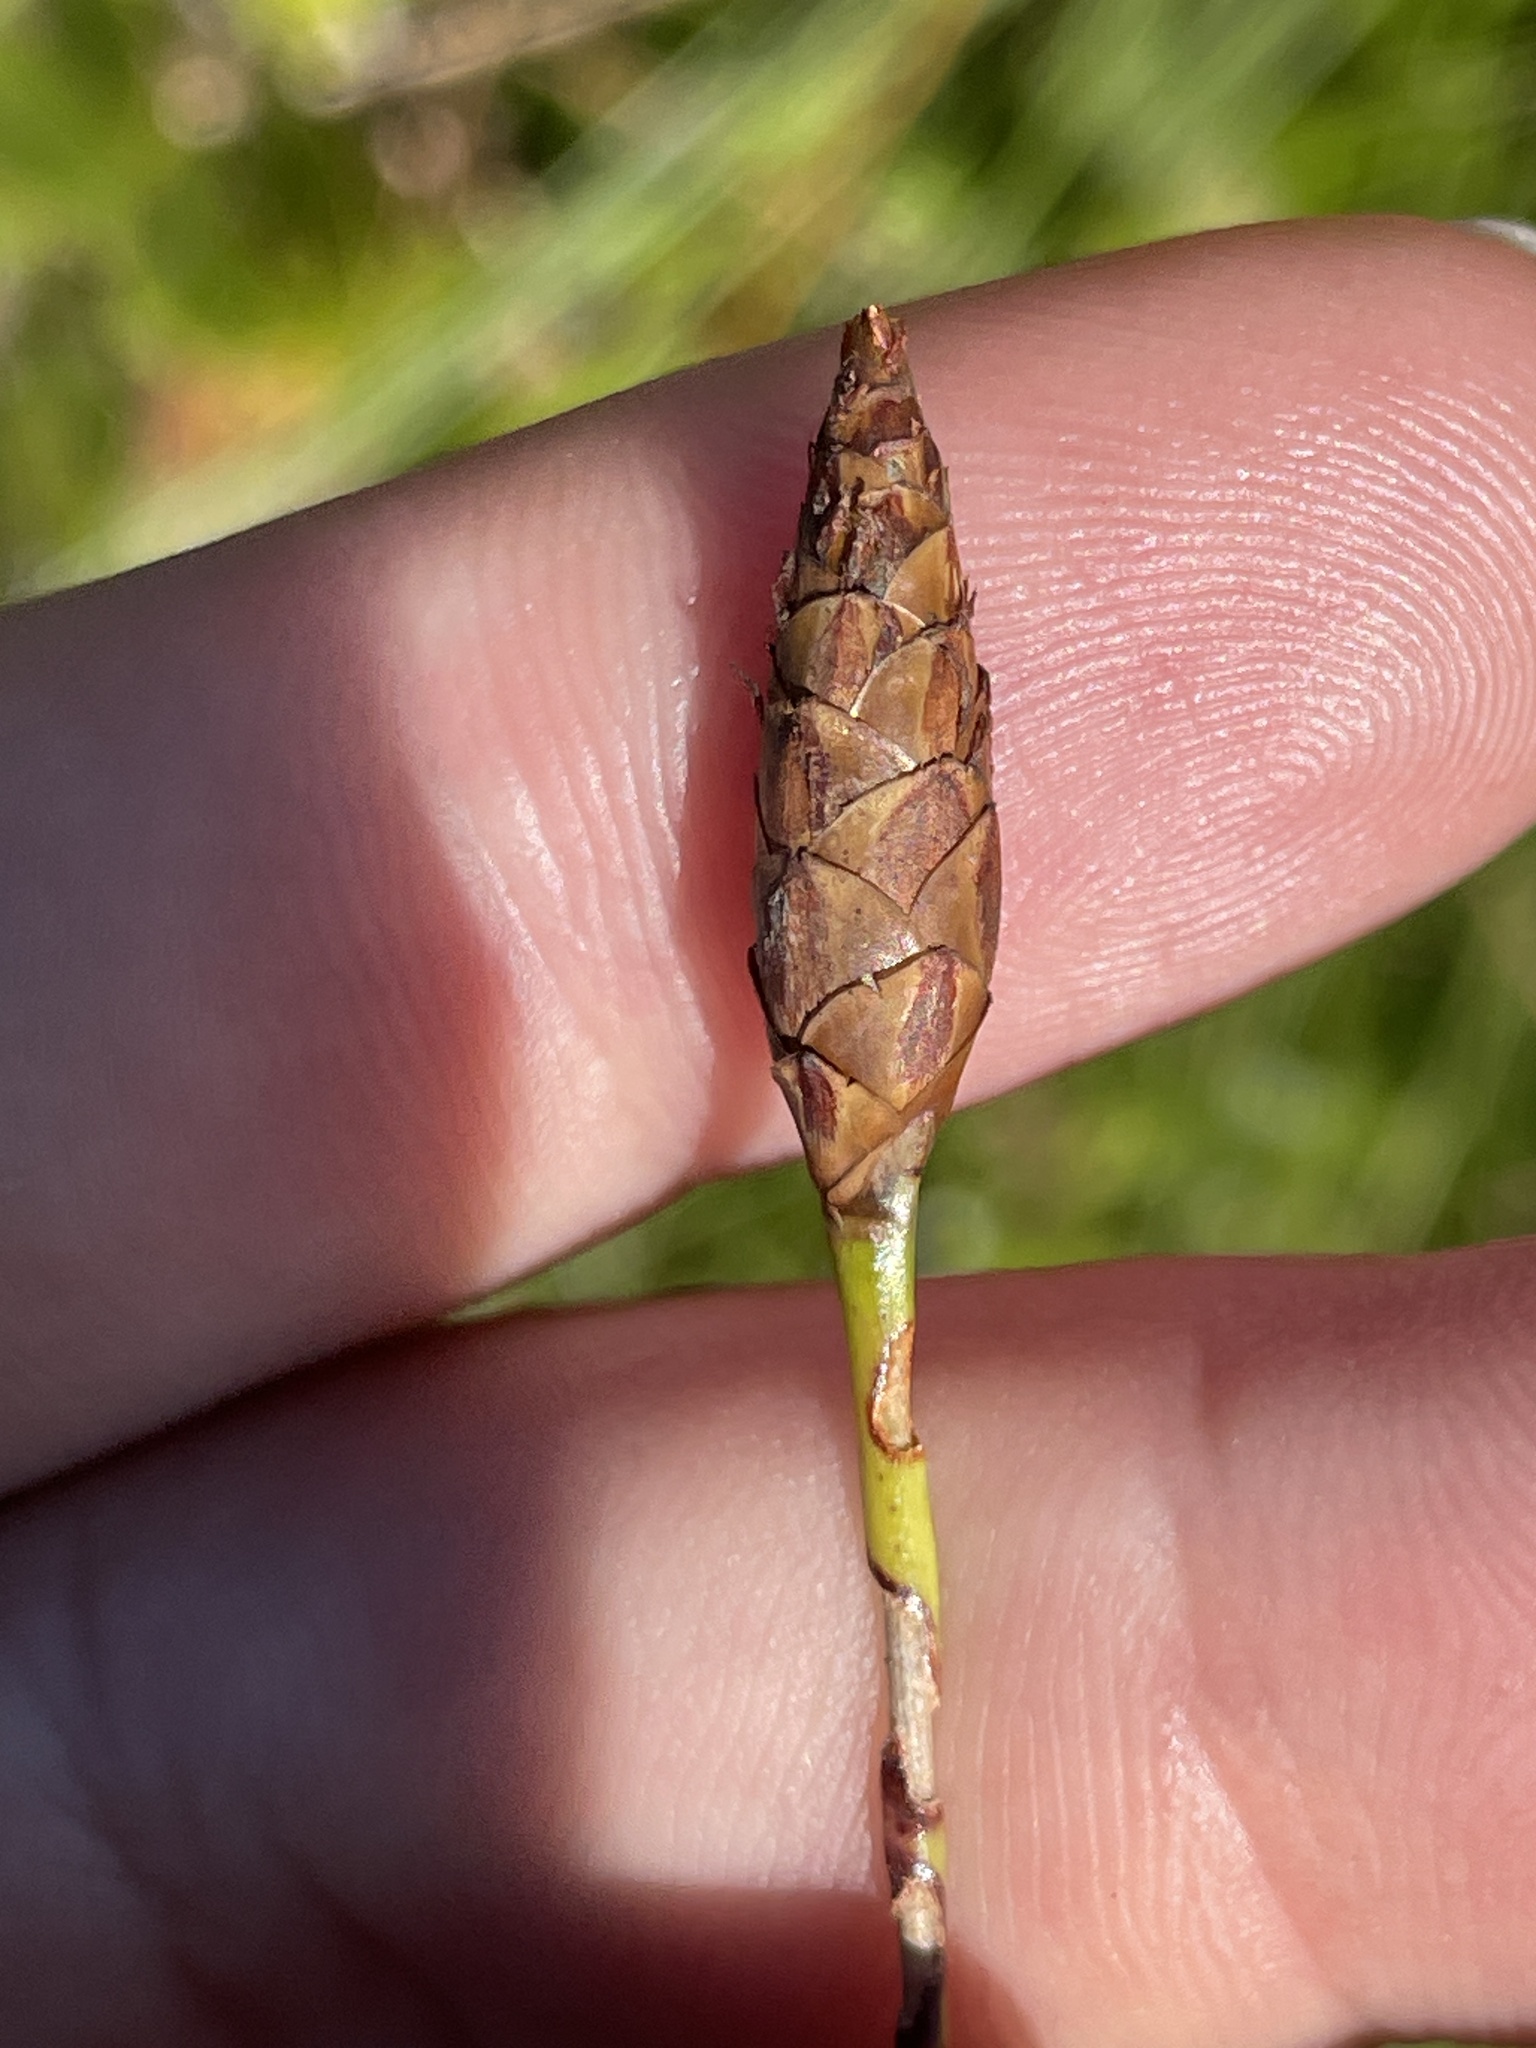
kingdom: Plantae
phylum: Tracheophyta
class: Liliopsida
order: Poales
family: Xyridaceae
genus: Xyris
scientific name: Xyris caroliniana
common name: Carolina yellow-eyed-grass
